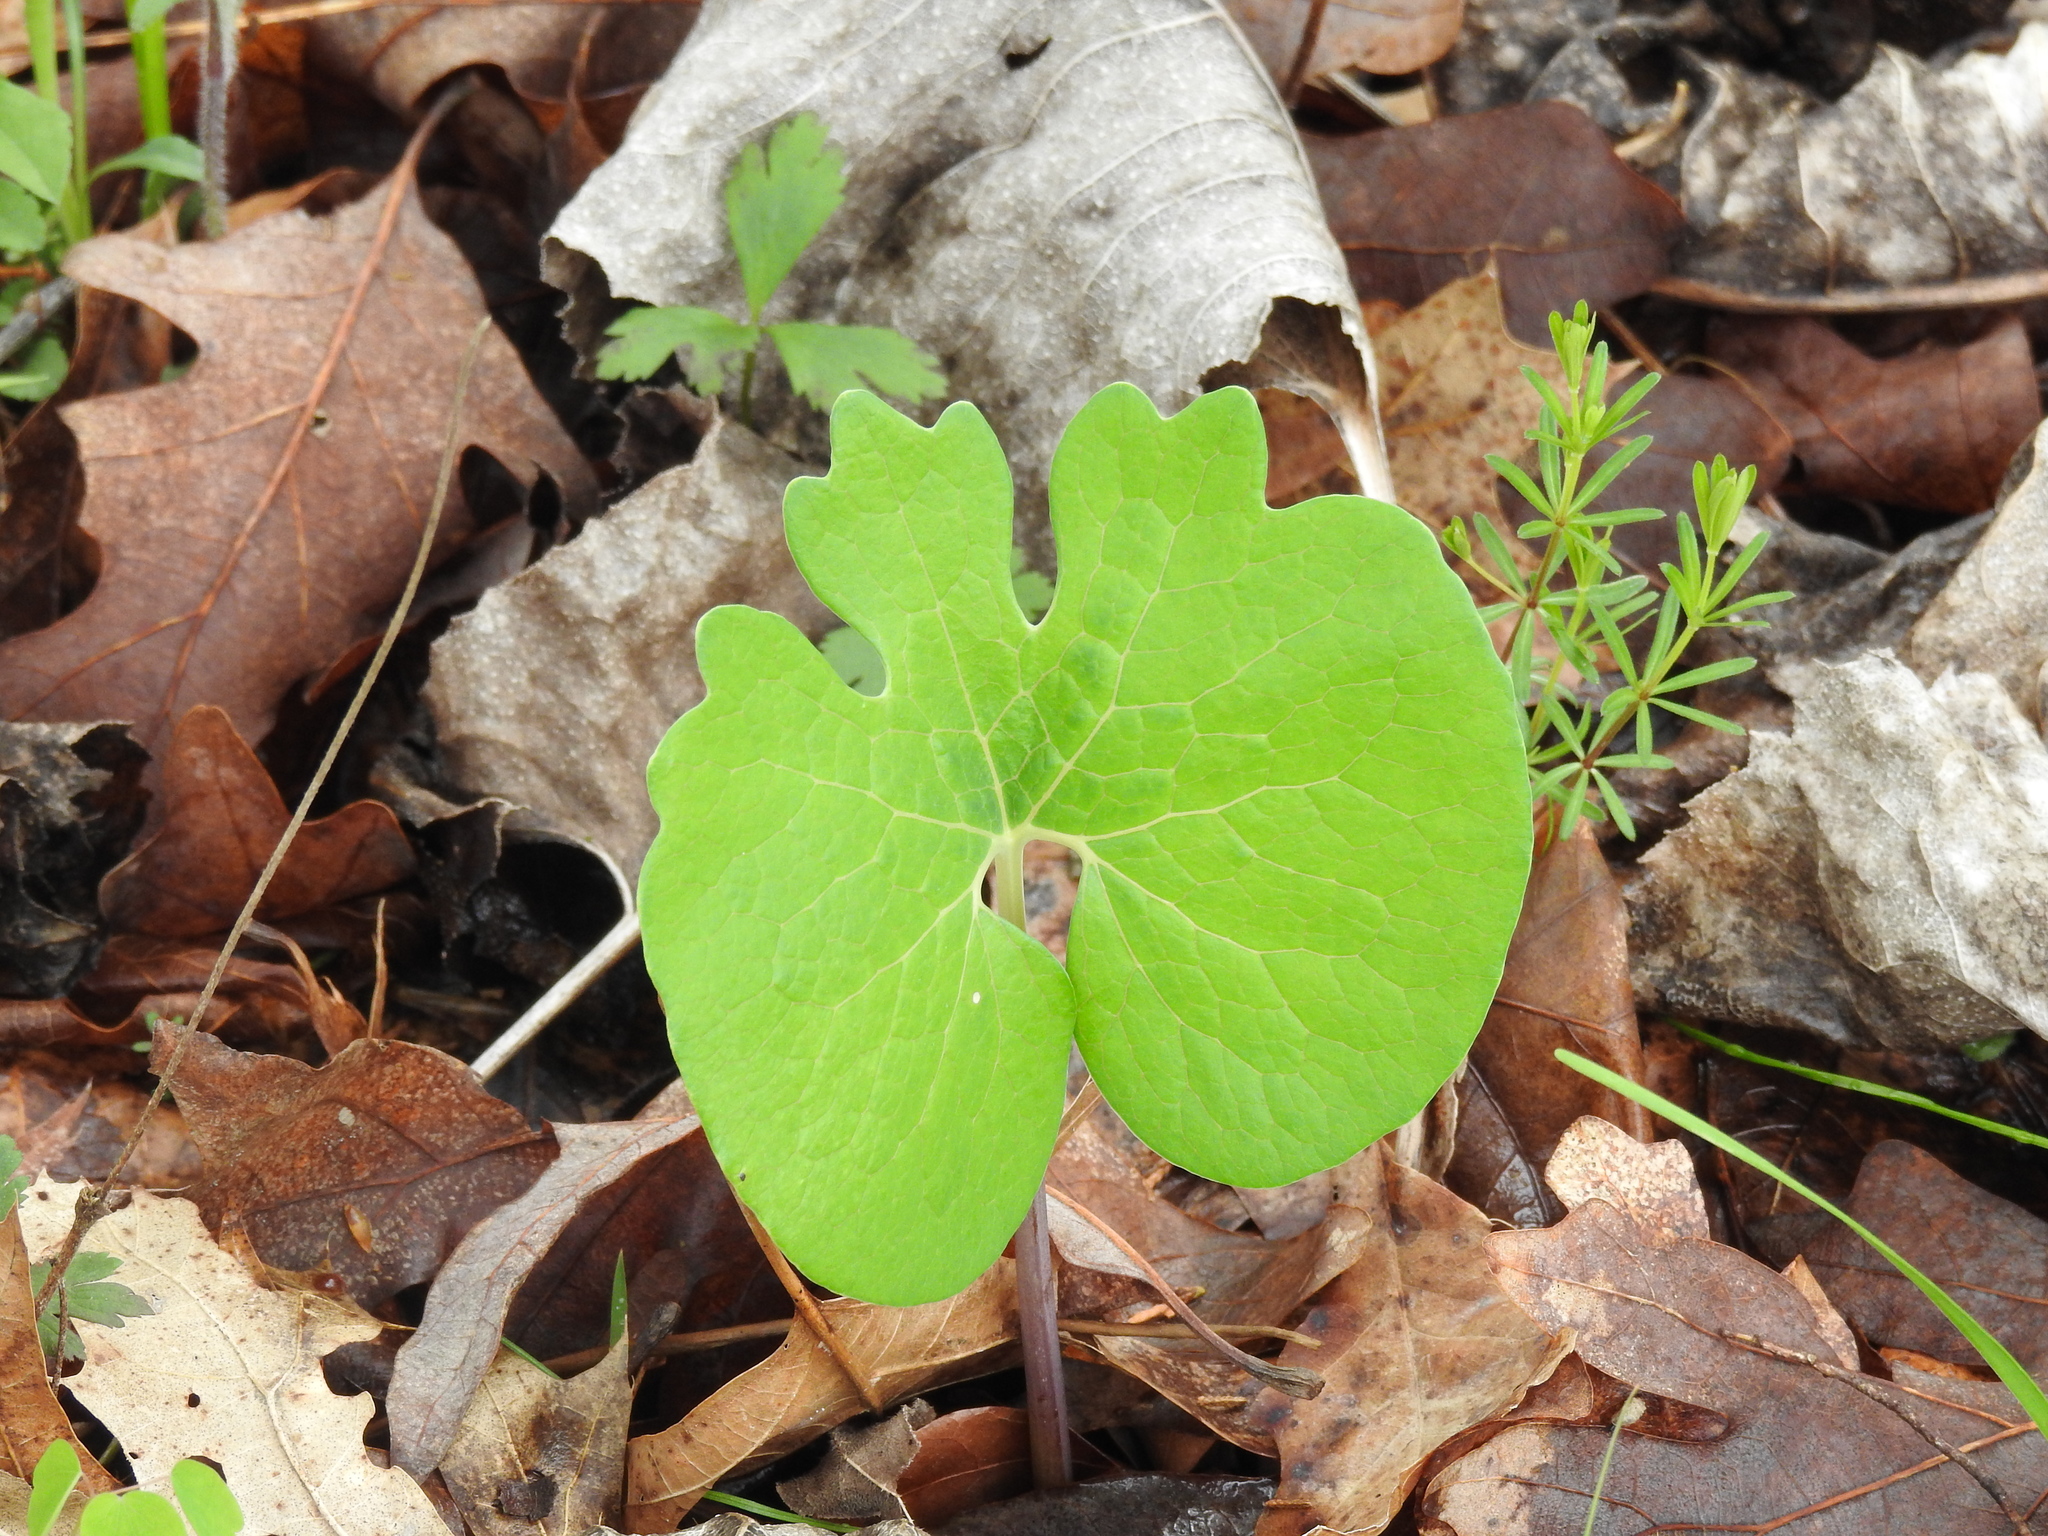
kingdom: Plantae
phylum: Tracheophyta
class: Magnoliopsida
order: Ranunculales
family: Papaveraceae
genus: Sanguinaria
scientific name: Sanguinaria canadensis
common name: Bloodroot
